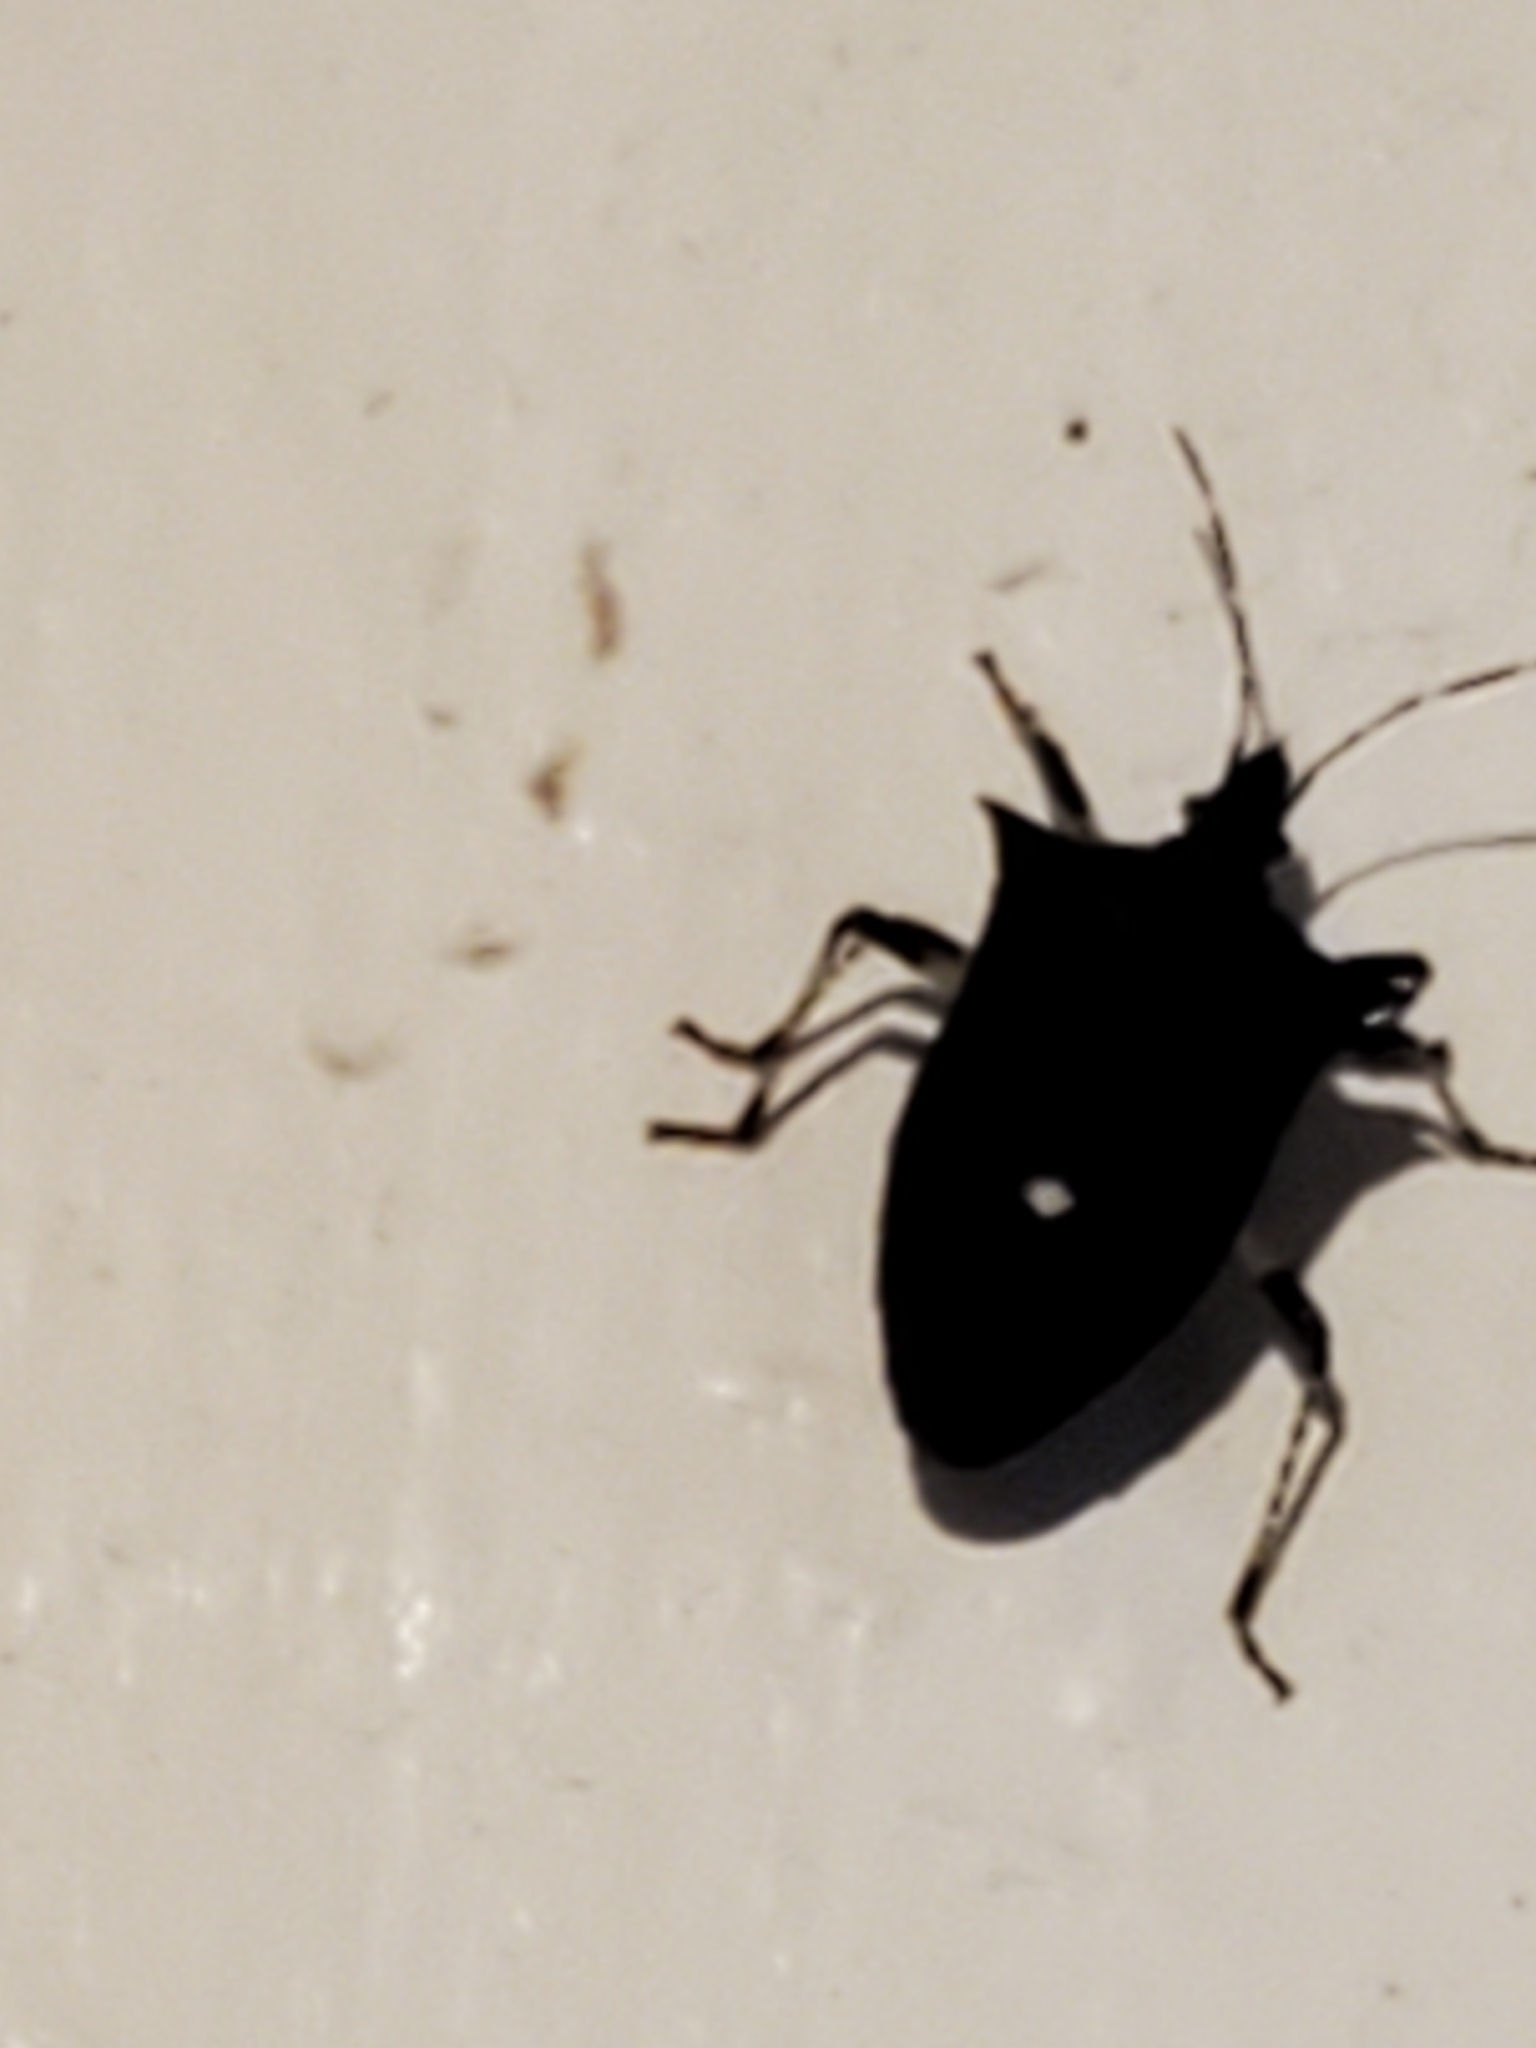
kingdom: Animalia
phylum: Arthropoda
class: Insecta
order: Hemiptera
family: Pentatomidae
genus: Proxys
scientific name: Proxys punctulatus
